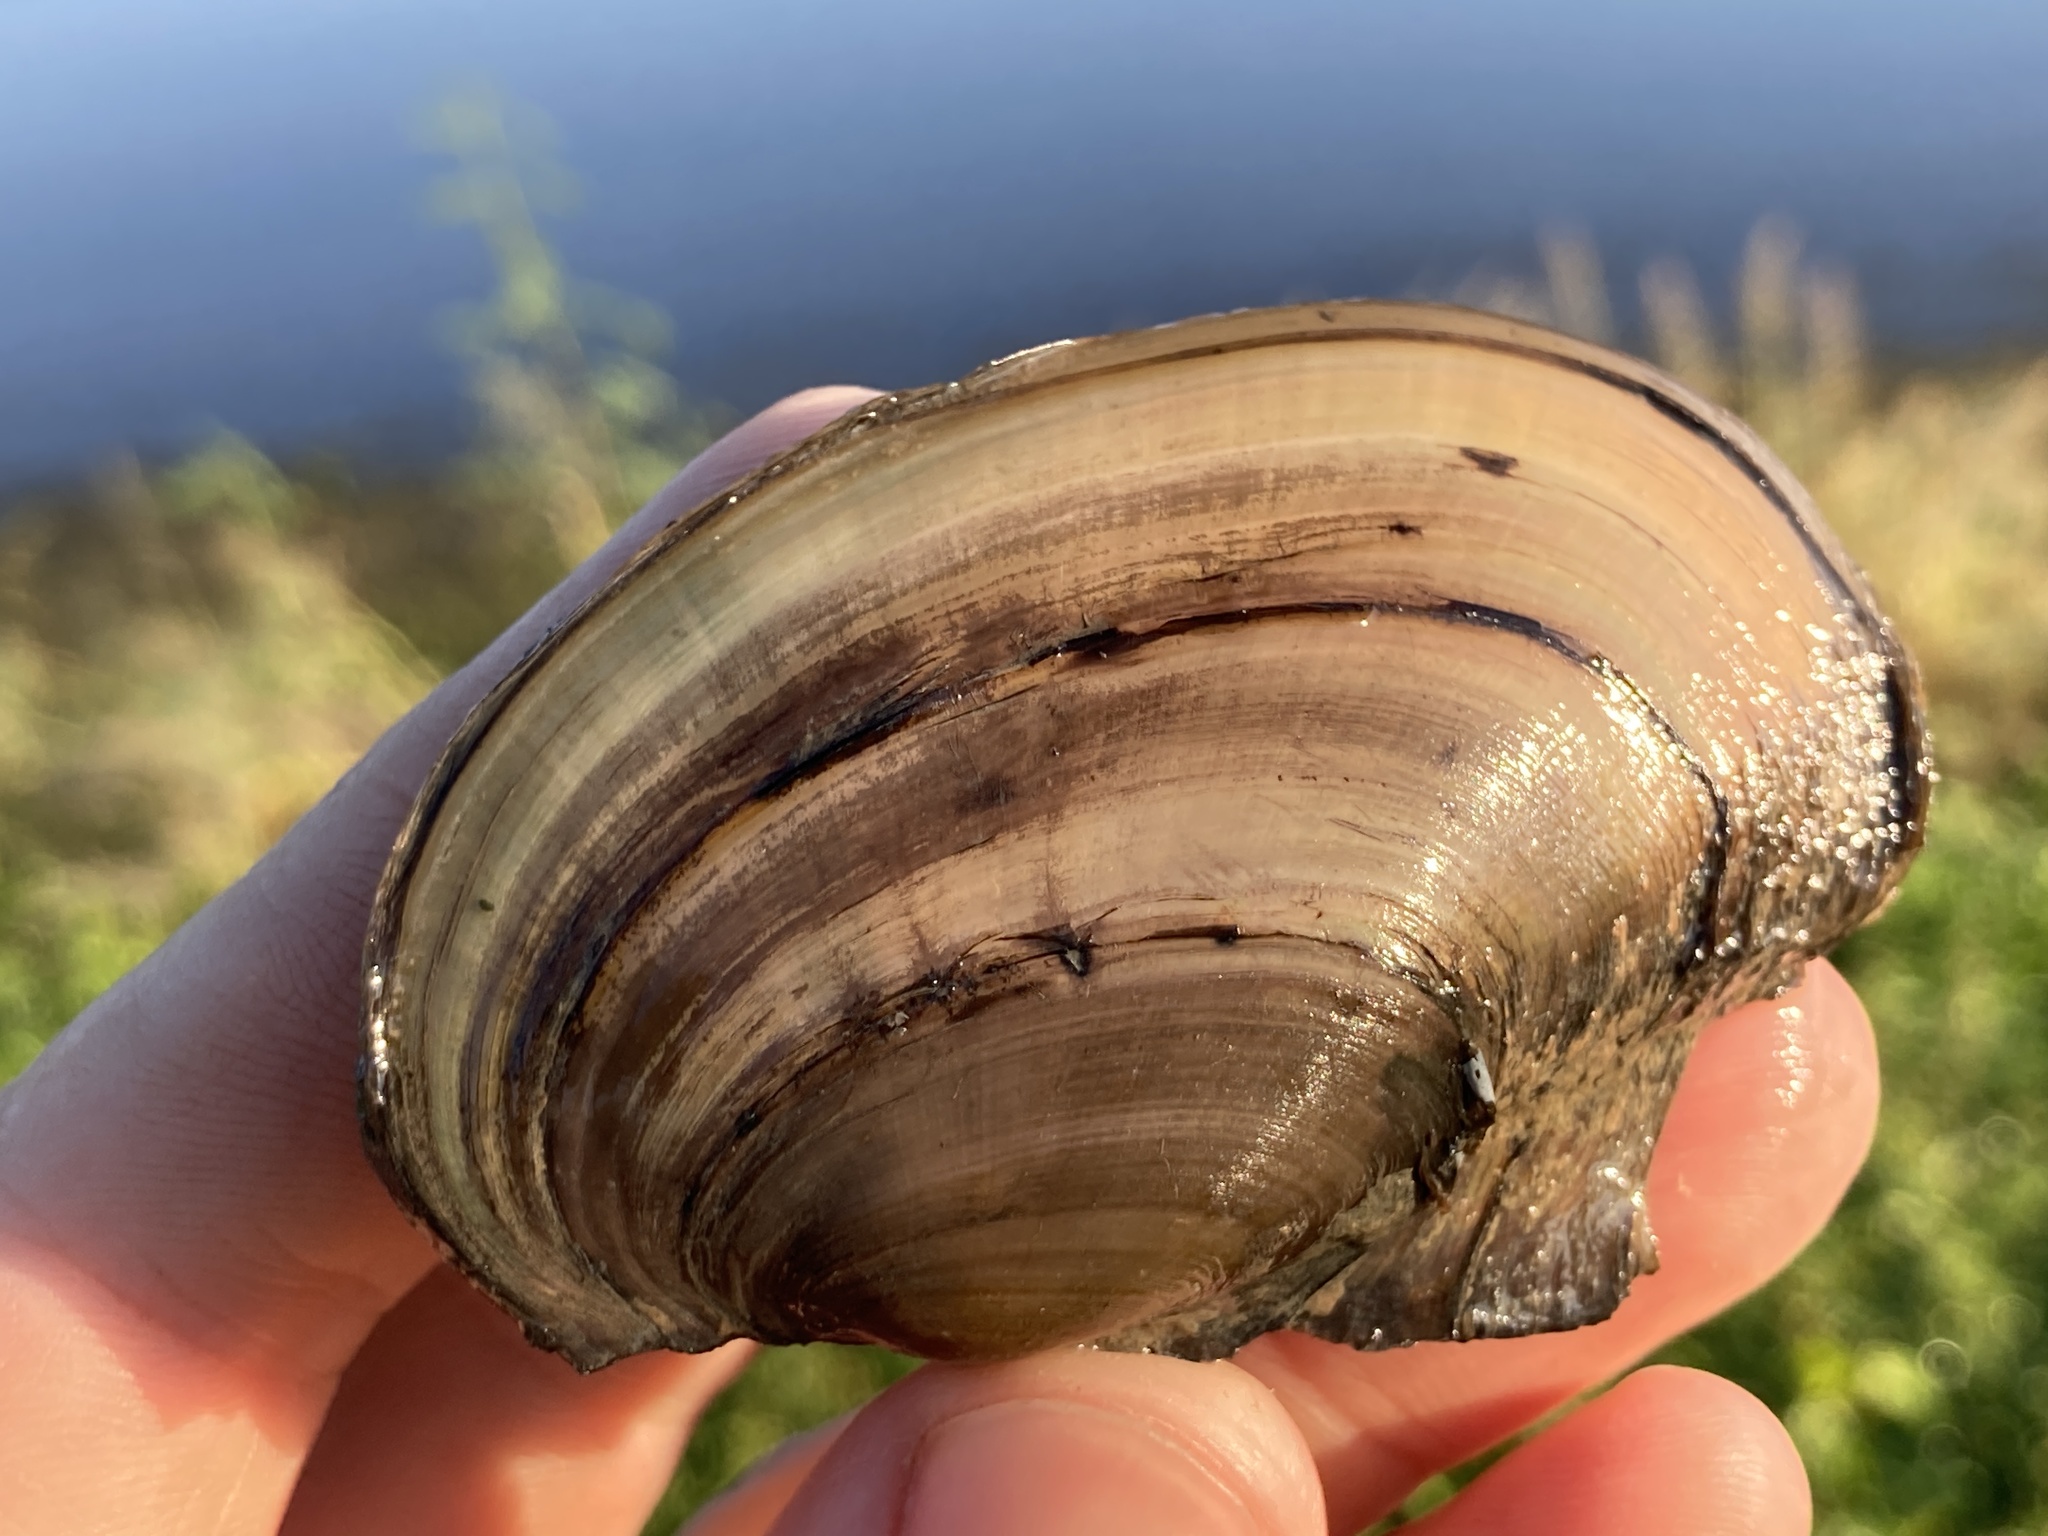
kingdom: Animalia
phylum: Mollusca
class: Bivalvia
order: Unionida
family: Unionidae
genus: Potamilus
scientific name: Potamilus fragilis
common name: Fragile papershell
